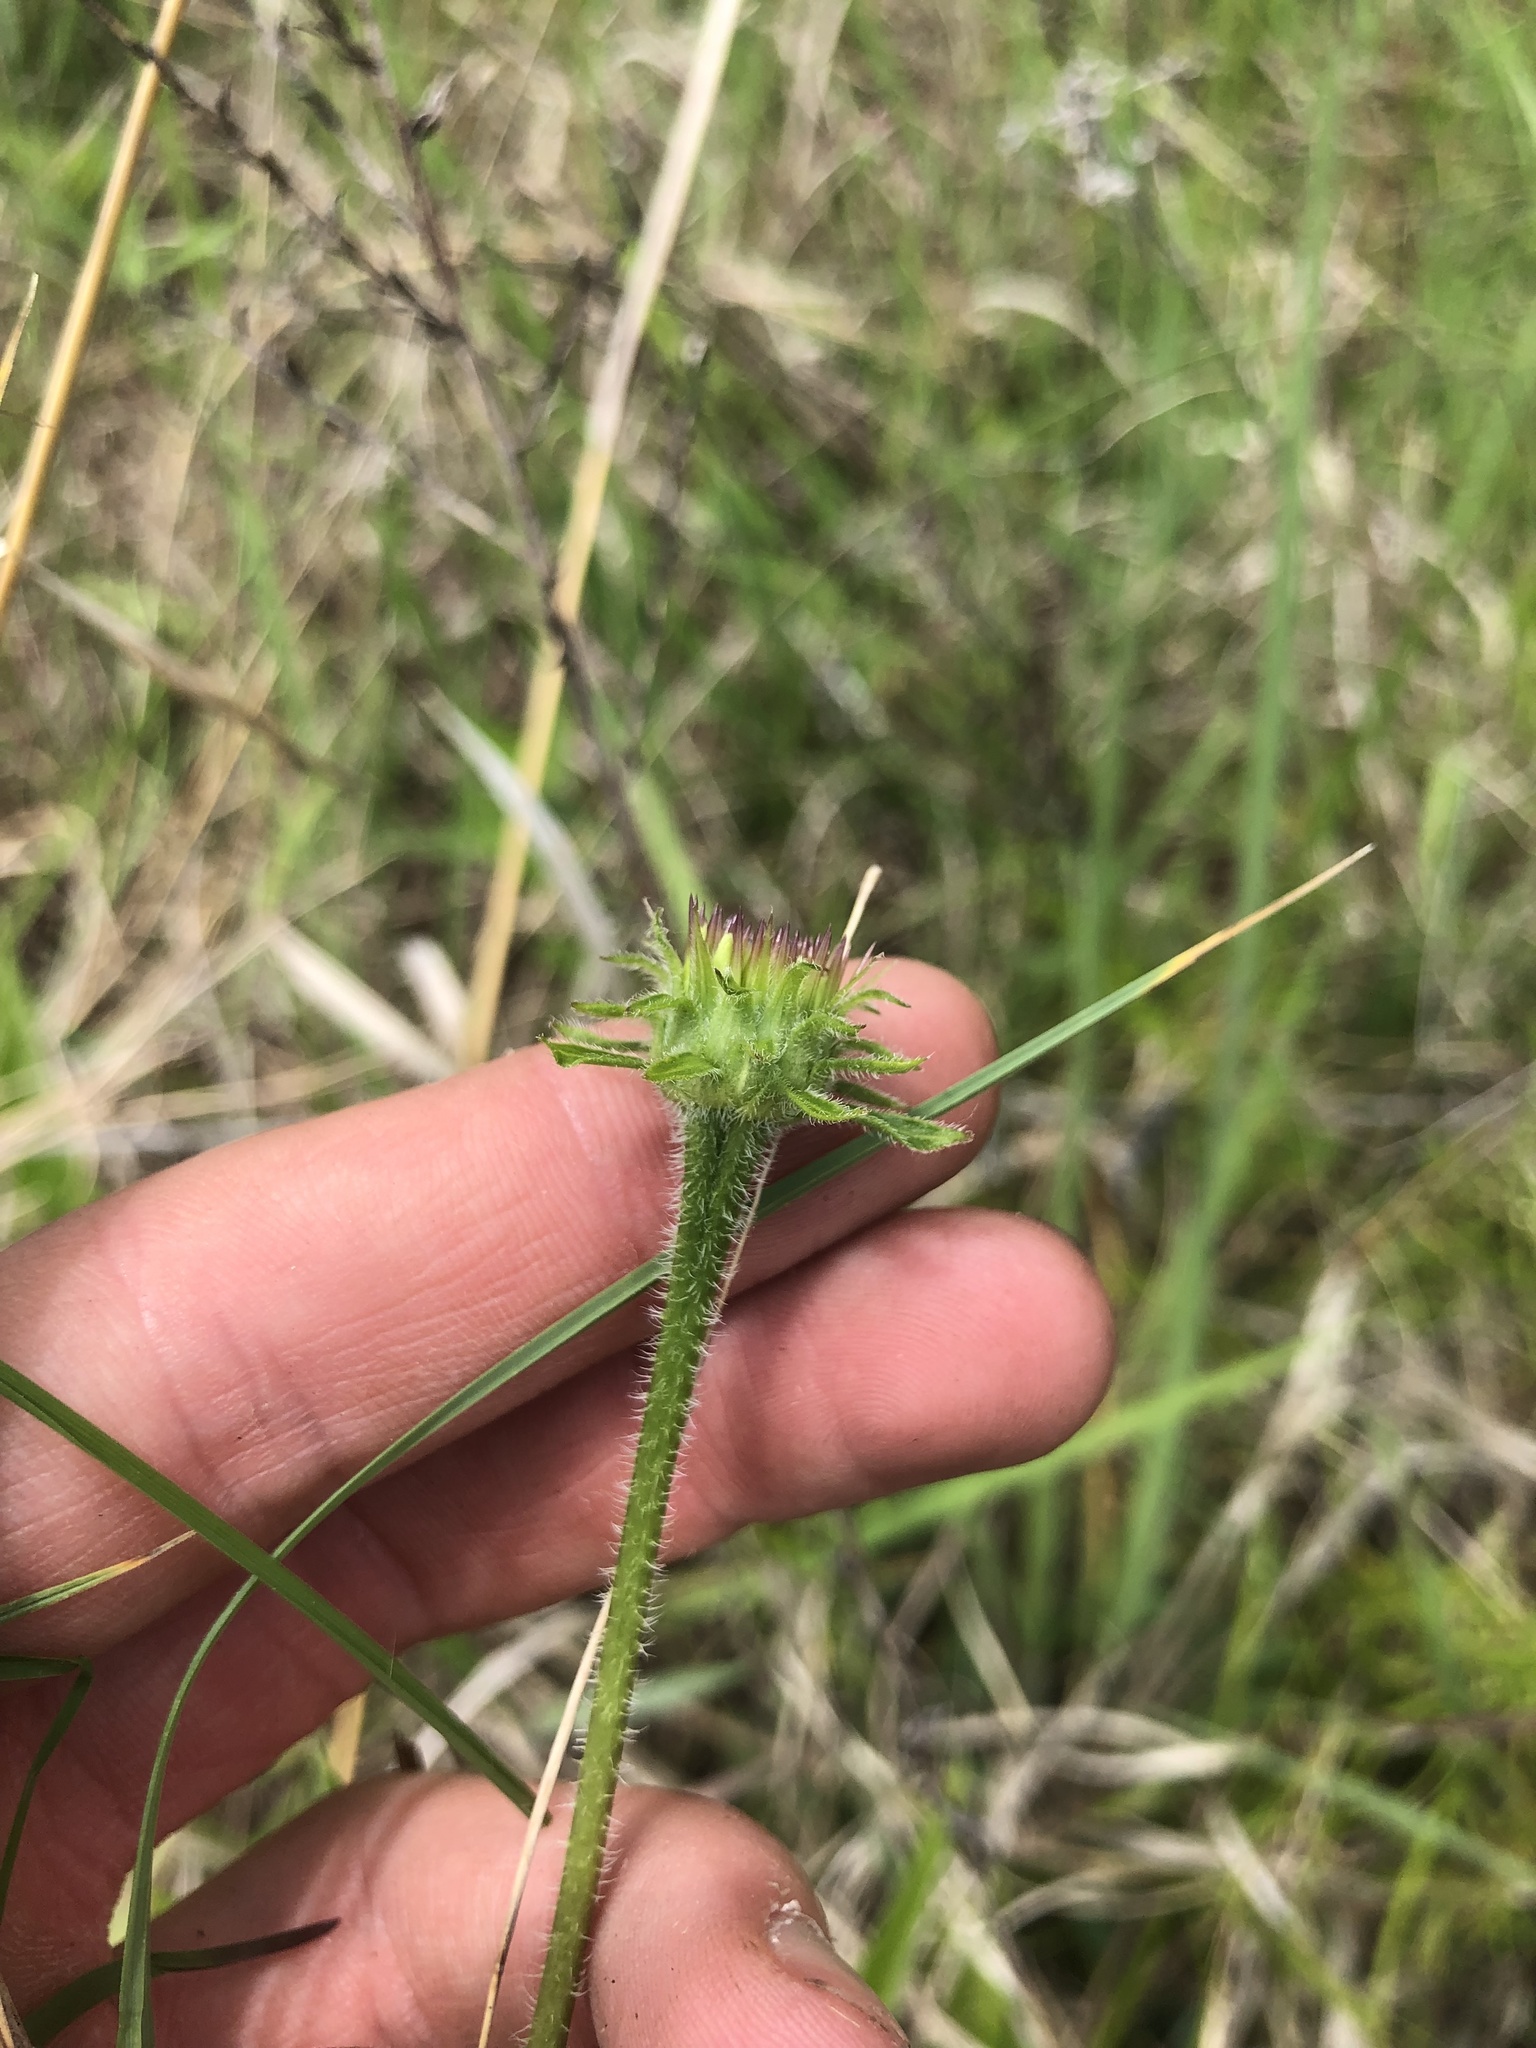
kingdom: Plantae
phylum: Tracheophyta
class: Magnoliopsida
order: Asterales
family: Asteraceae
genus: Echinacea
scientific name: Echinacea purpurea
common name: Broad-leaved purple coneflower
